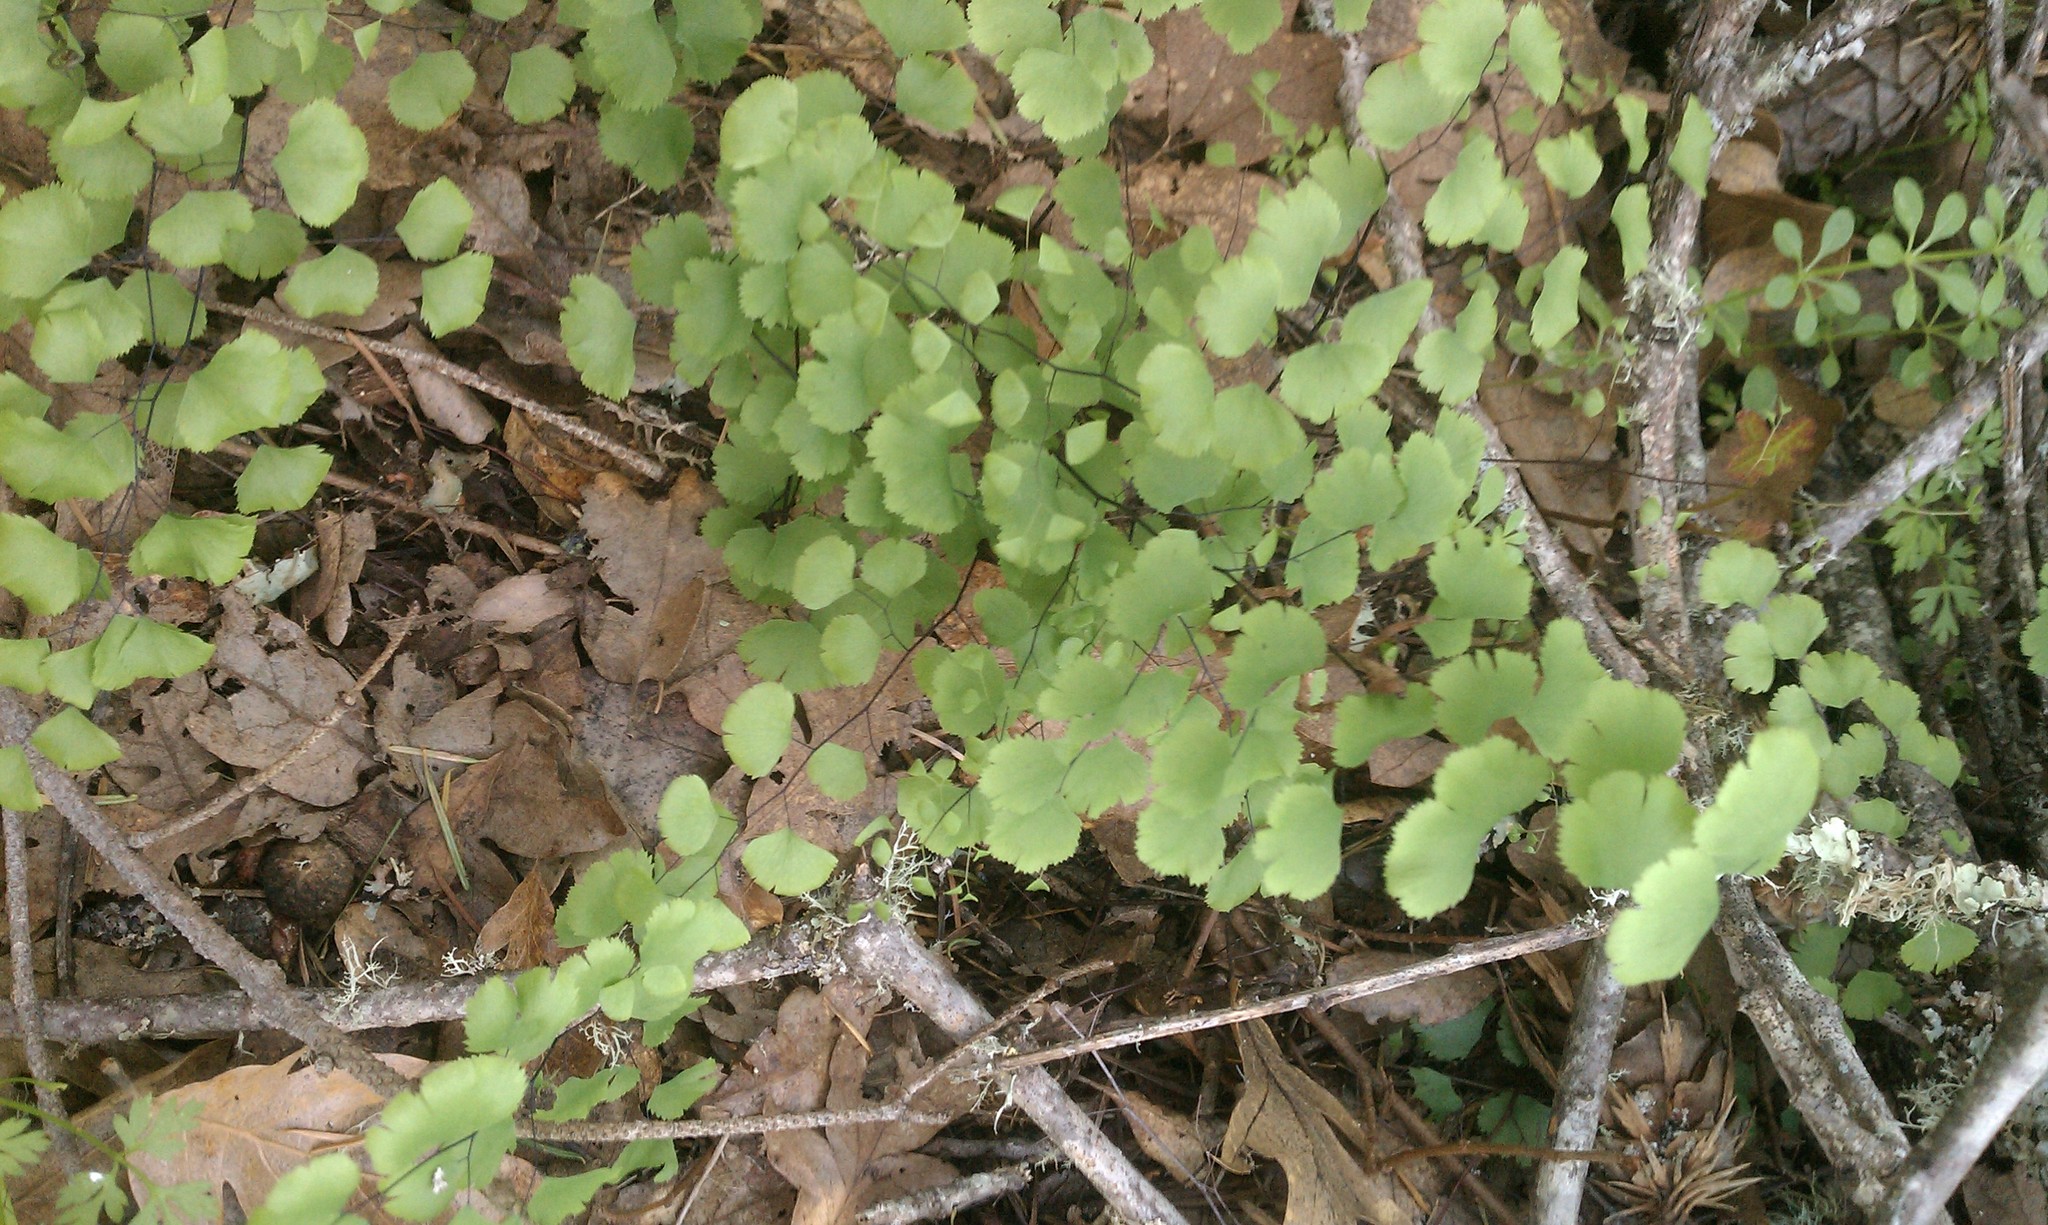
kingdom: Plantae
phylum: Tracheophyta
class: Polypodiopsida
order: Polypodiales
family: Pteridaceae
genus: Adiantum
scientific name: Adiantum jordanii
